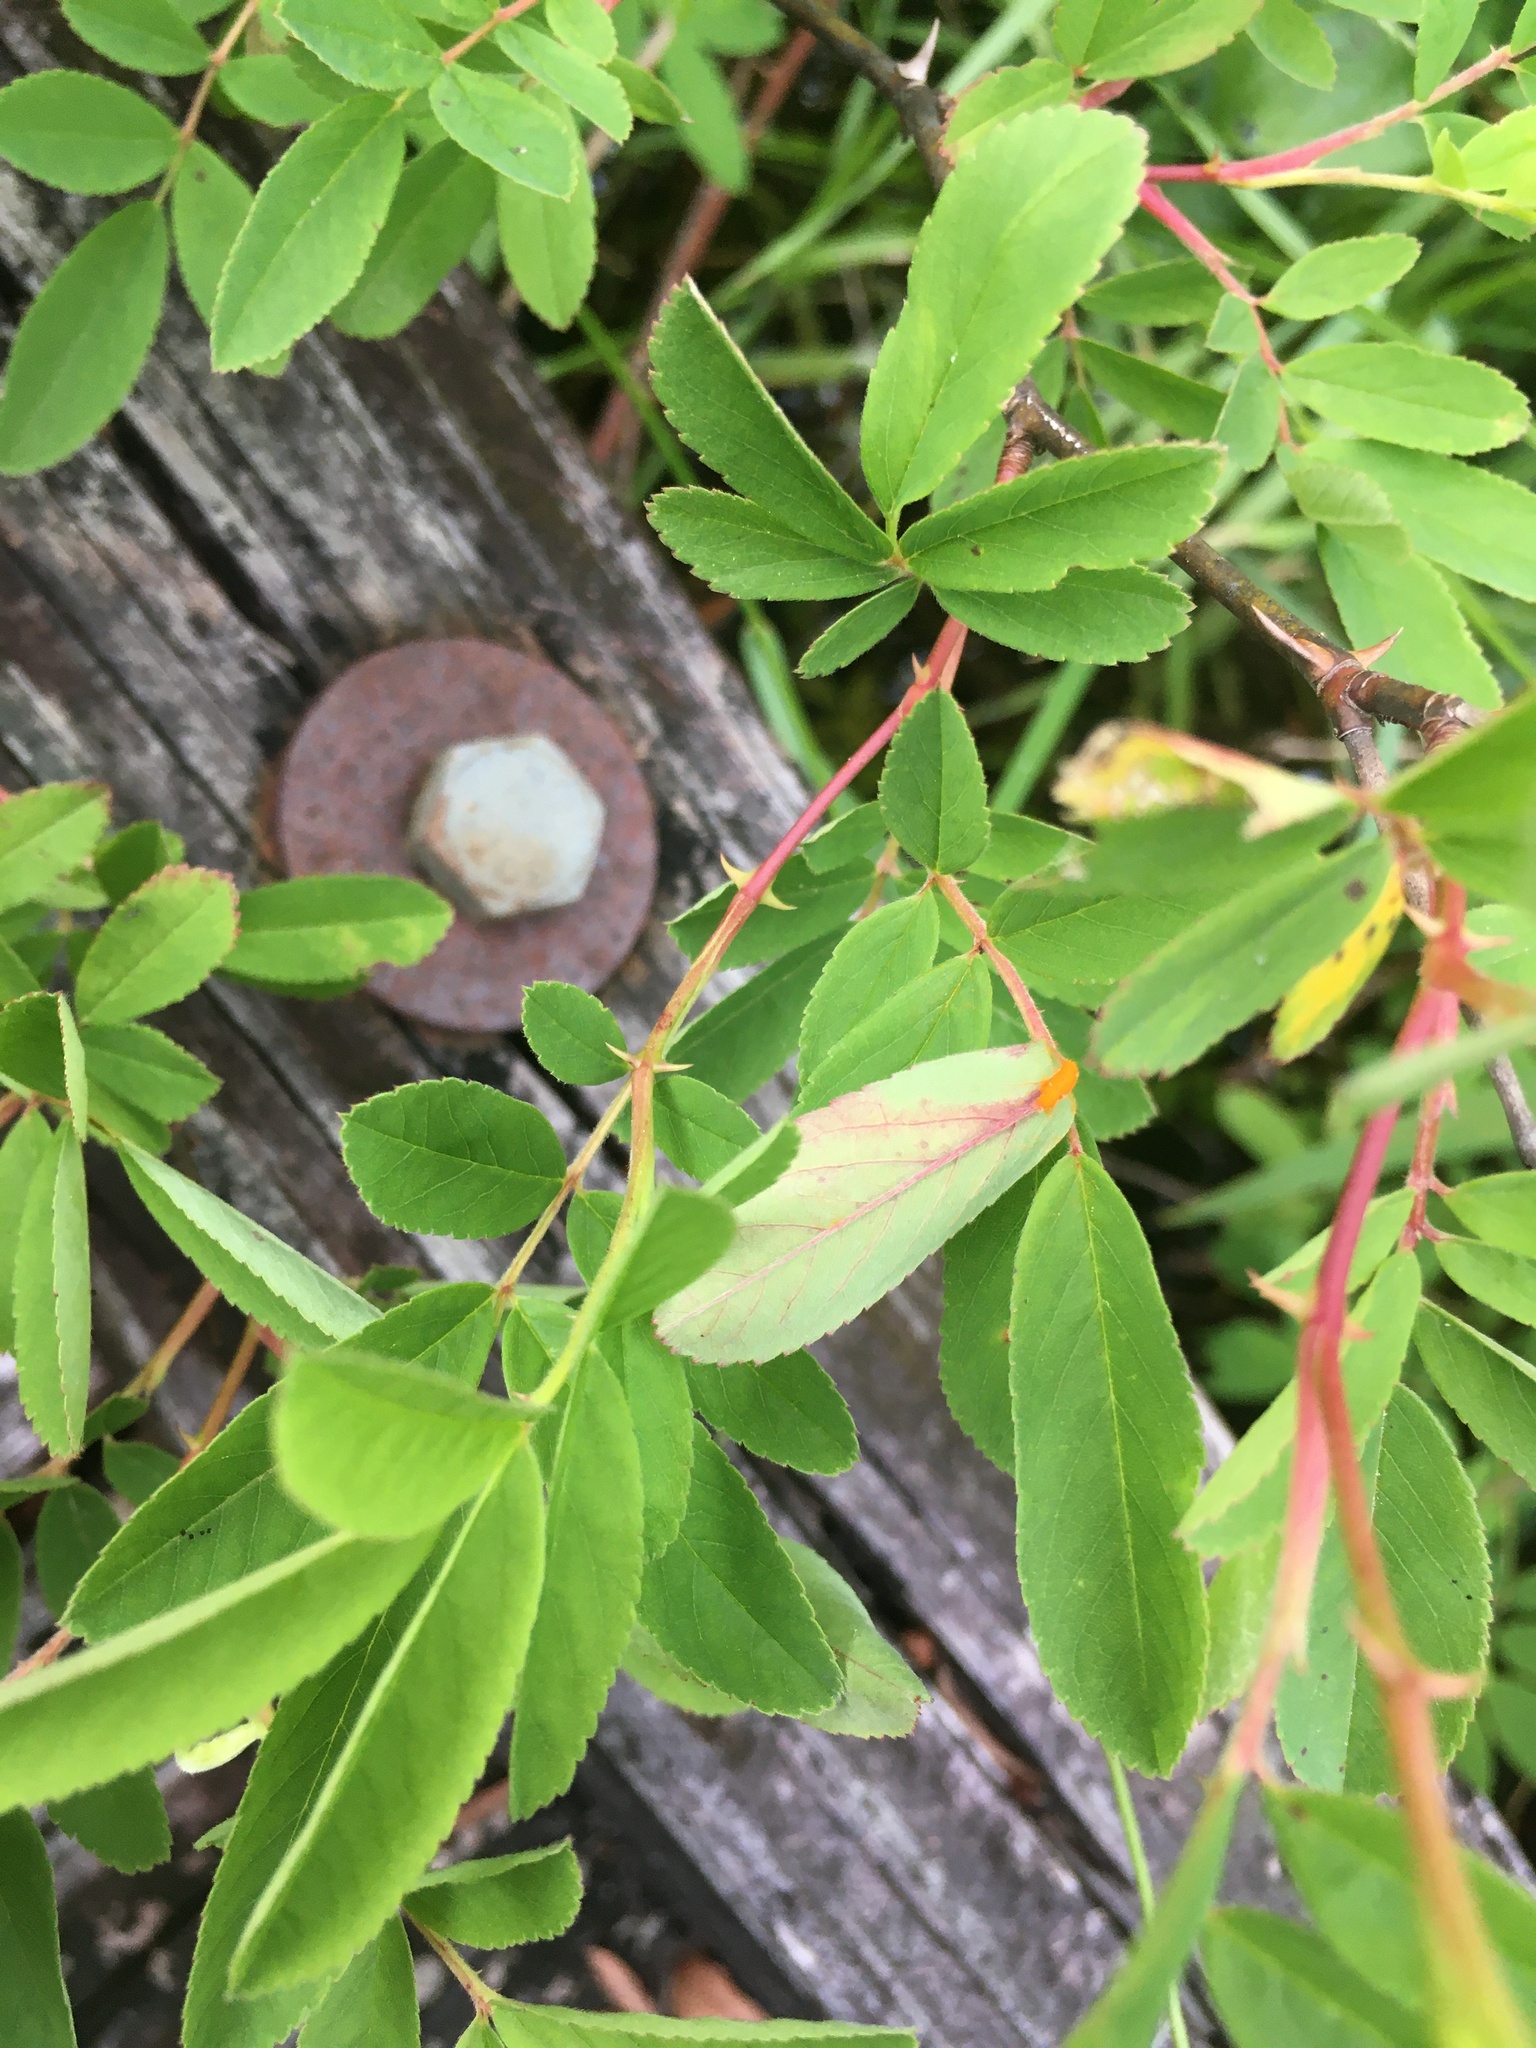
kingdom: Plantae
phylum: Tracheophyta
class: Magnoliopsida
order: Rosales
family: Rosaceae
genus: Rosa
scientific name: Rosa palustris
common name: Swamp rose
